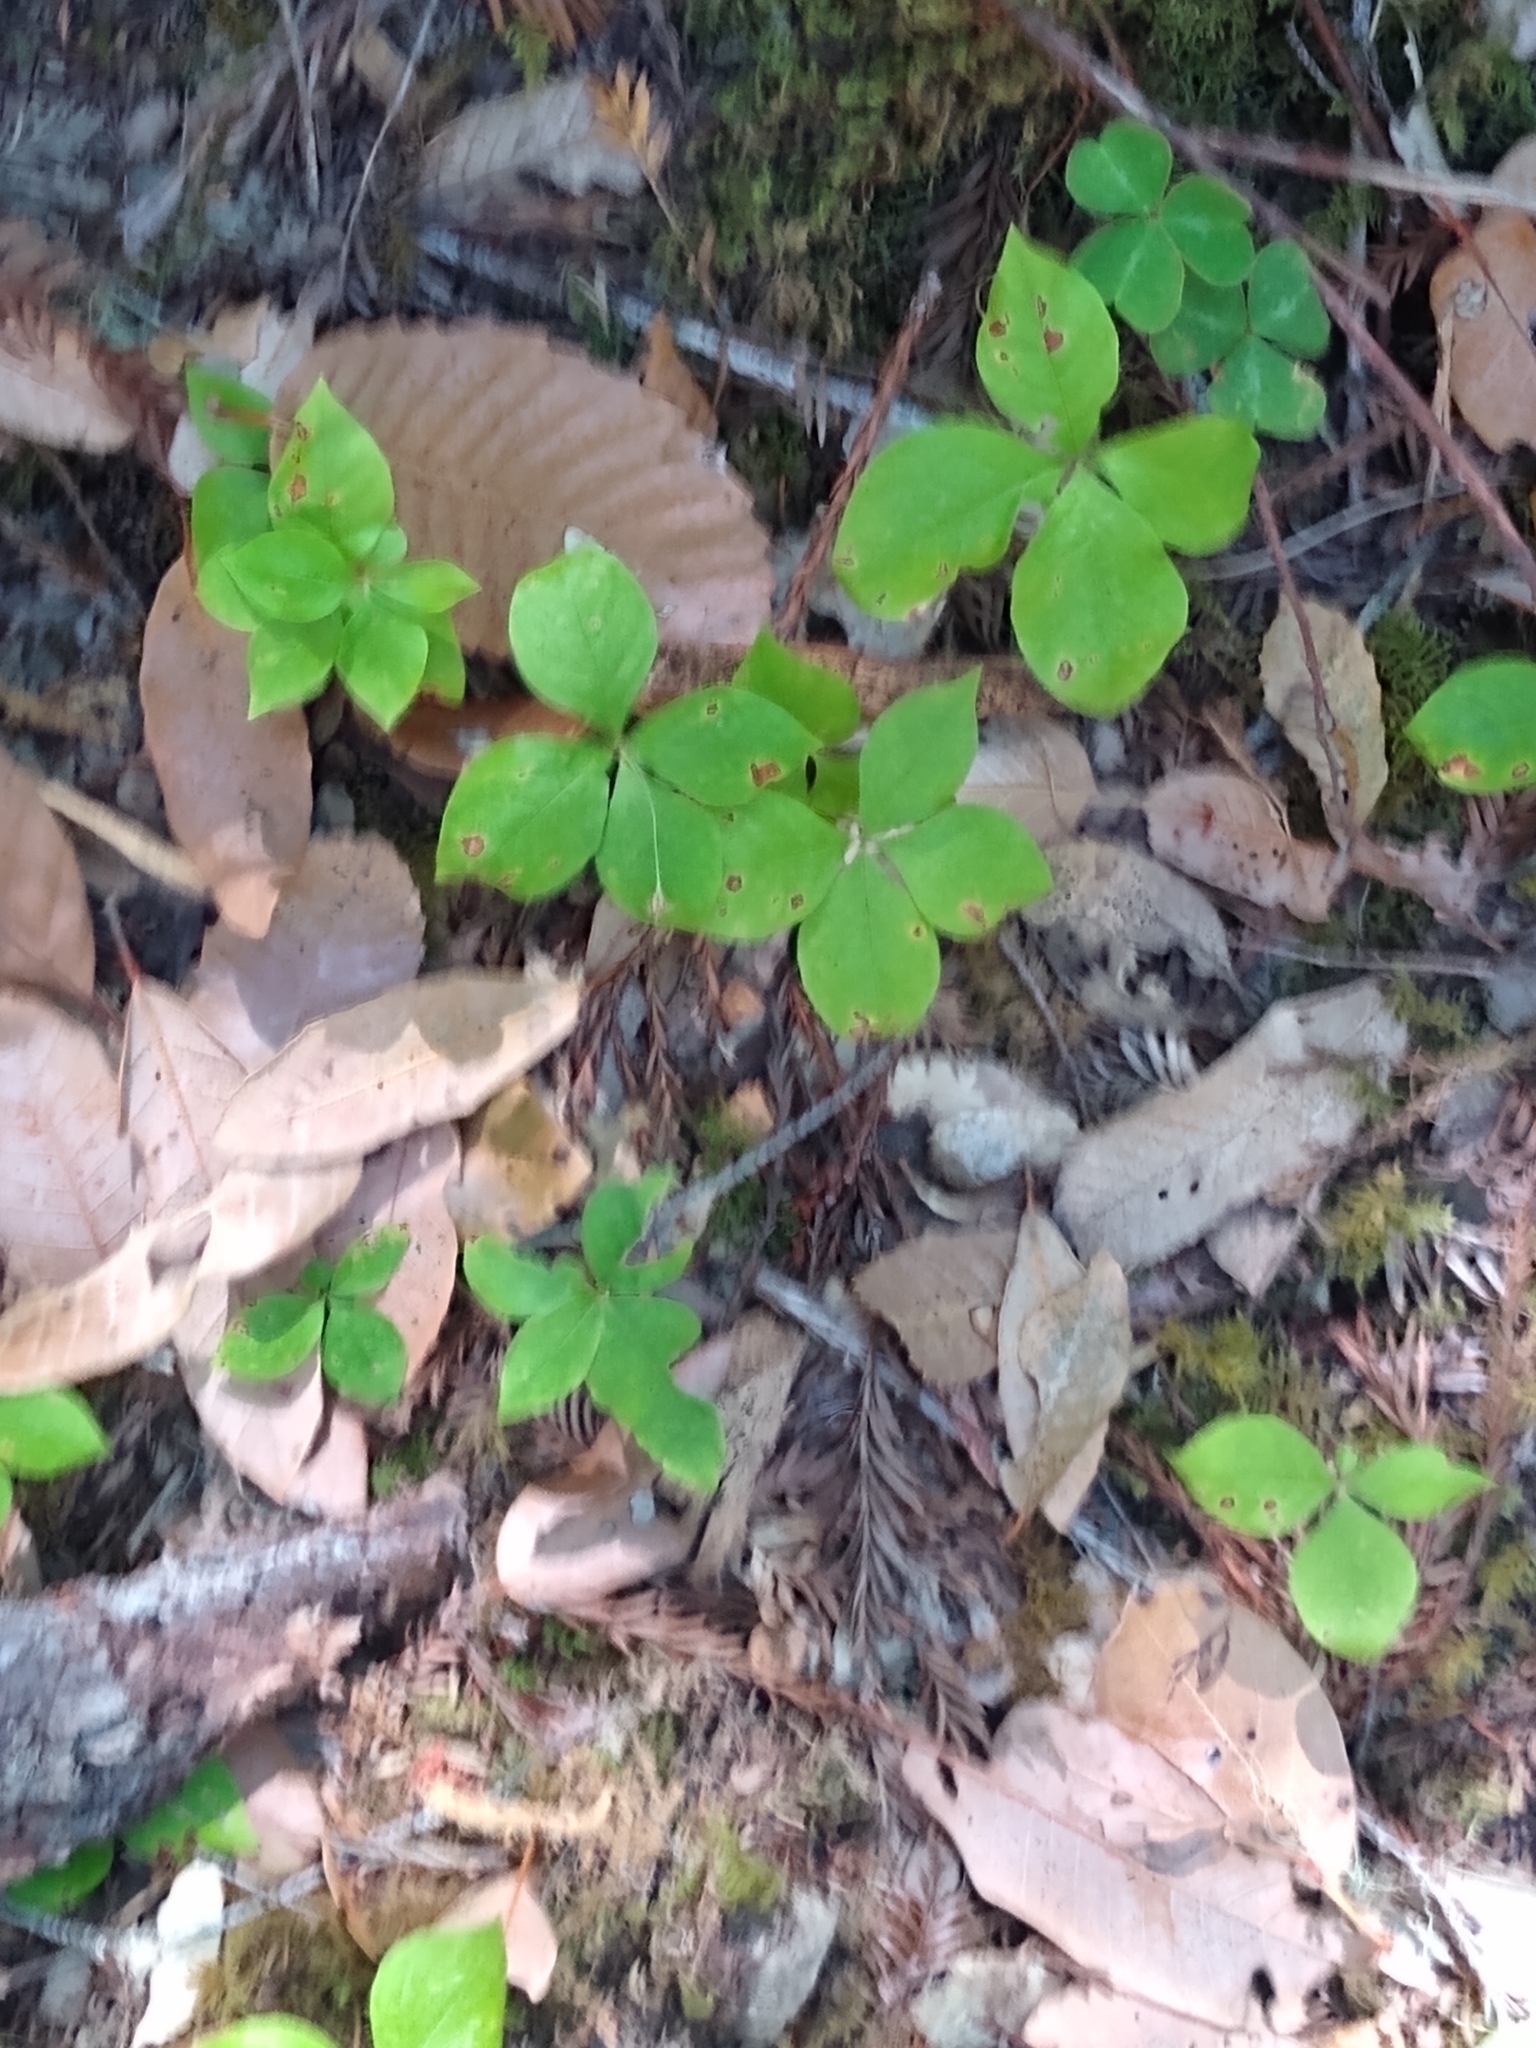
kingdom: Plantae
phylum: Tracheophyta
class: Magnoliopsida
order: Ericales
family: Primulaceae
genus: Lysimachia
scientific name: Lysimachia latifolia
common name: Pacific starflower
